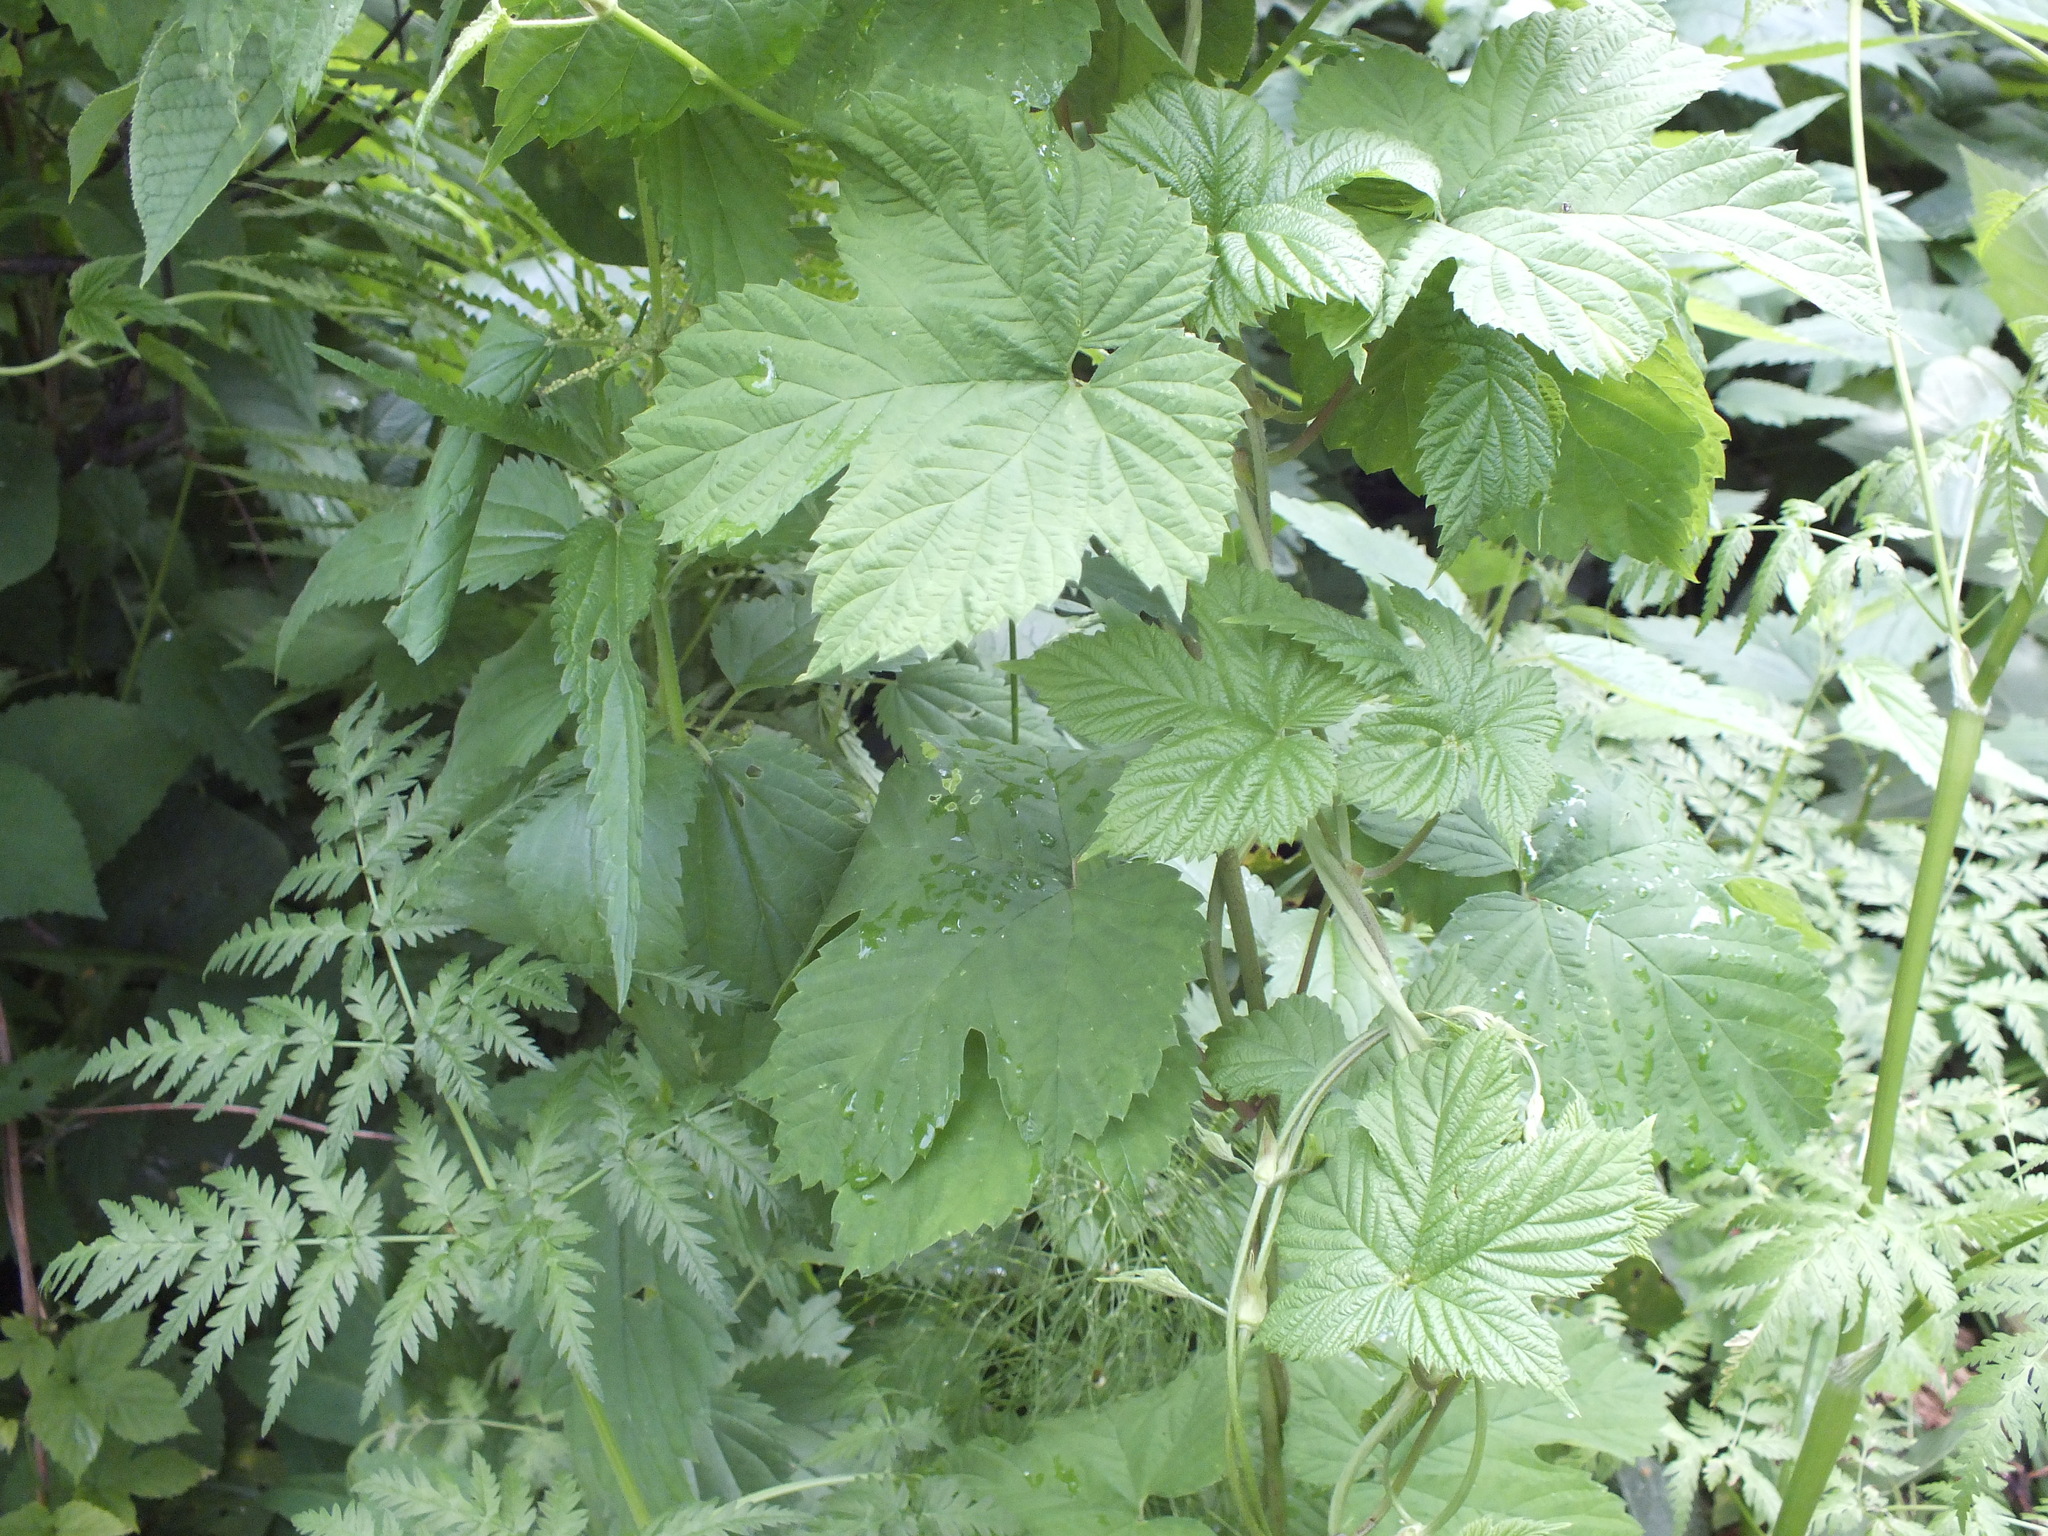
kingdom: Plantae
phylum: Tracheophyta
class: Magnoliopsida
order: Rosales
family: Cannabaceae
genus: Humulus
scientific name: Humulus lupulus
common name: Hop
